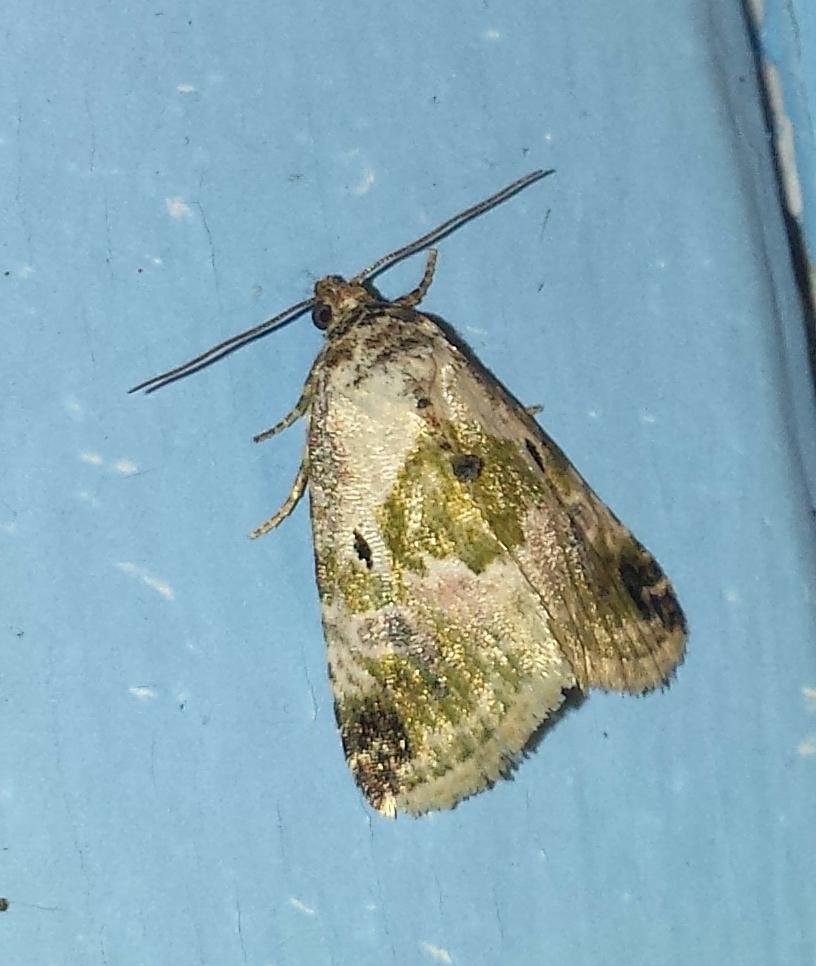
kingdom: Animalia
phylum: Arthropoda
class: Insecta
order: Lepidoptera
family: Noctuidae
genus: Maliattha
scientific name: Maliattha synochitis
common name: Black-dotted glyph
